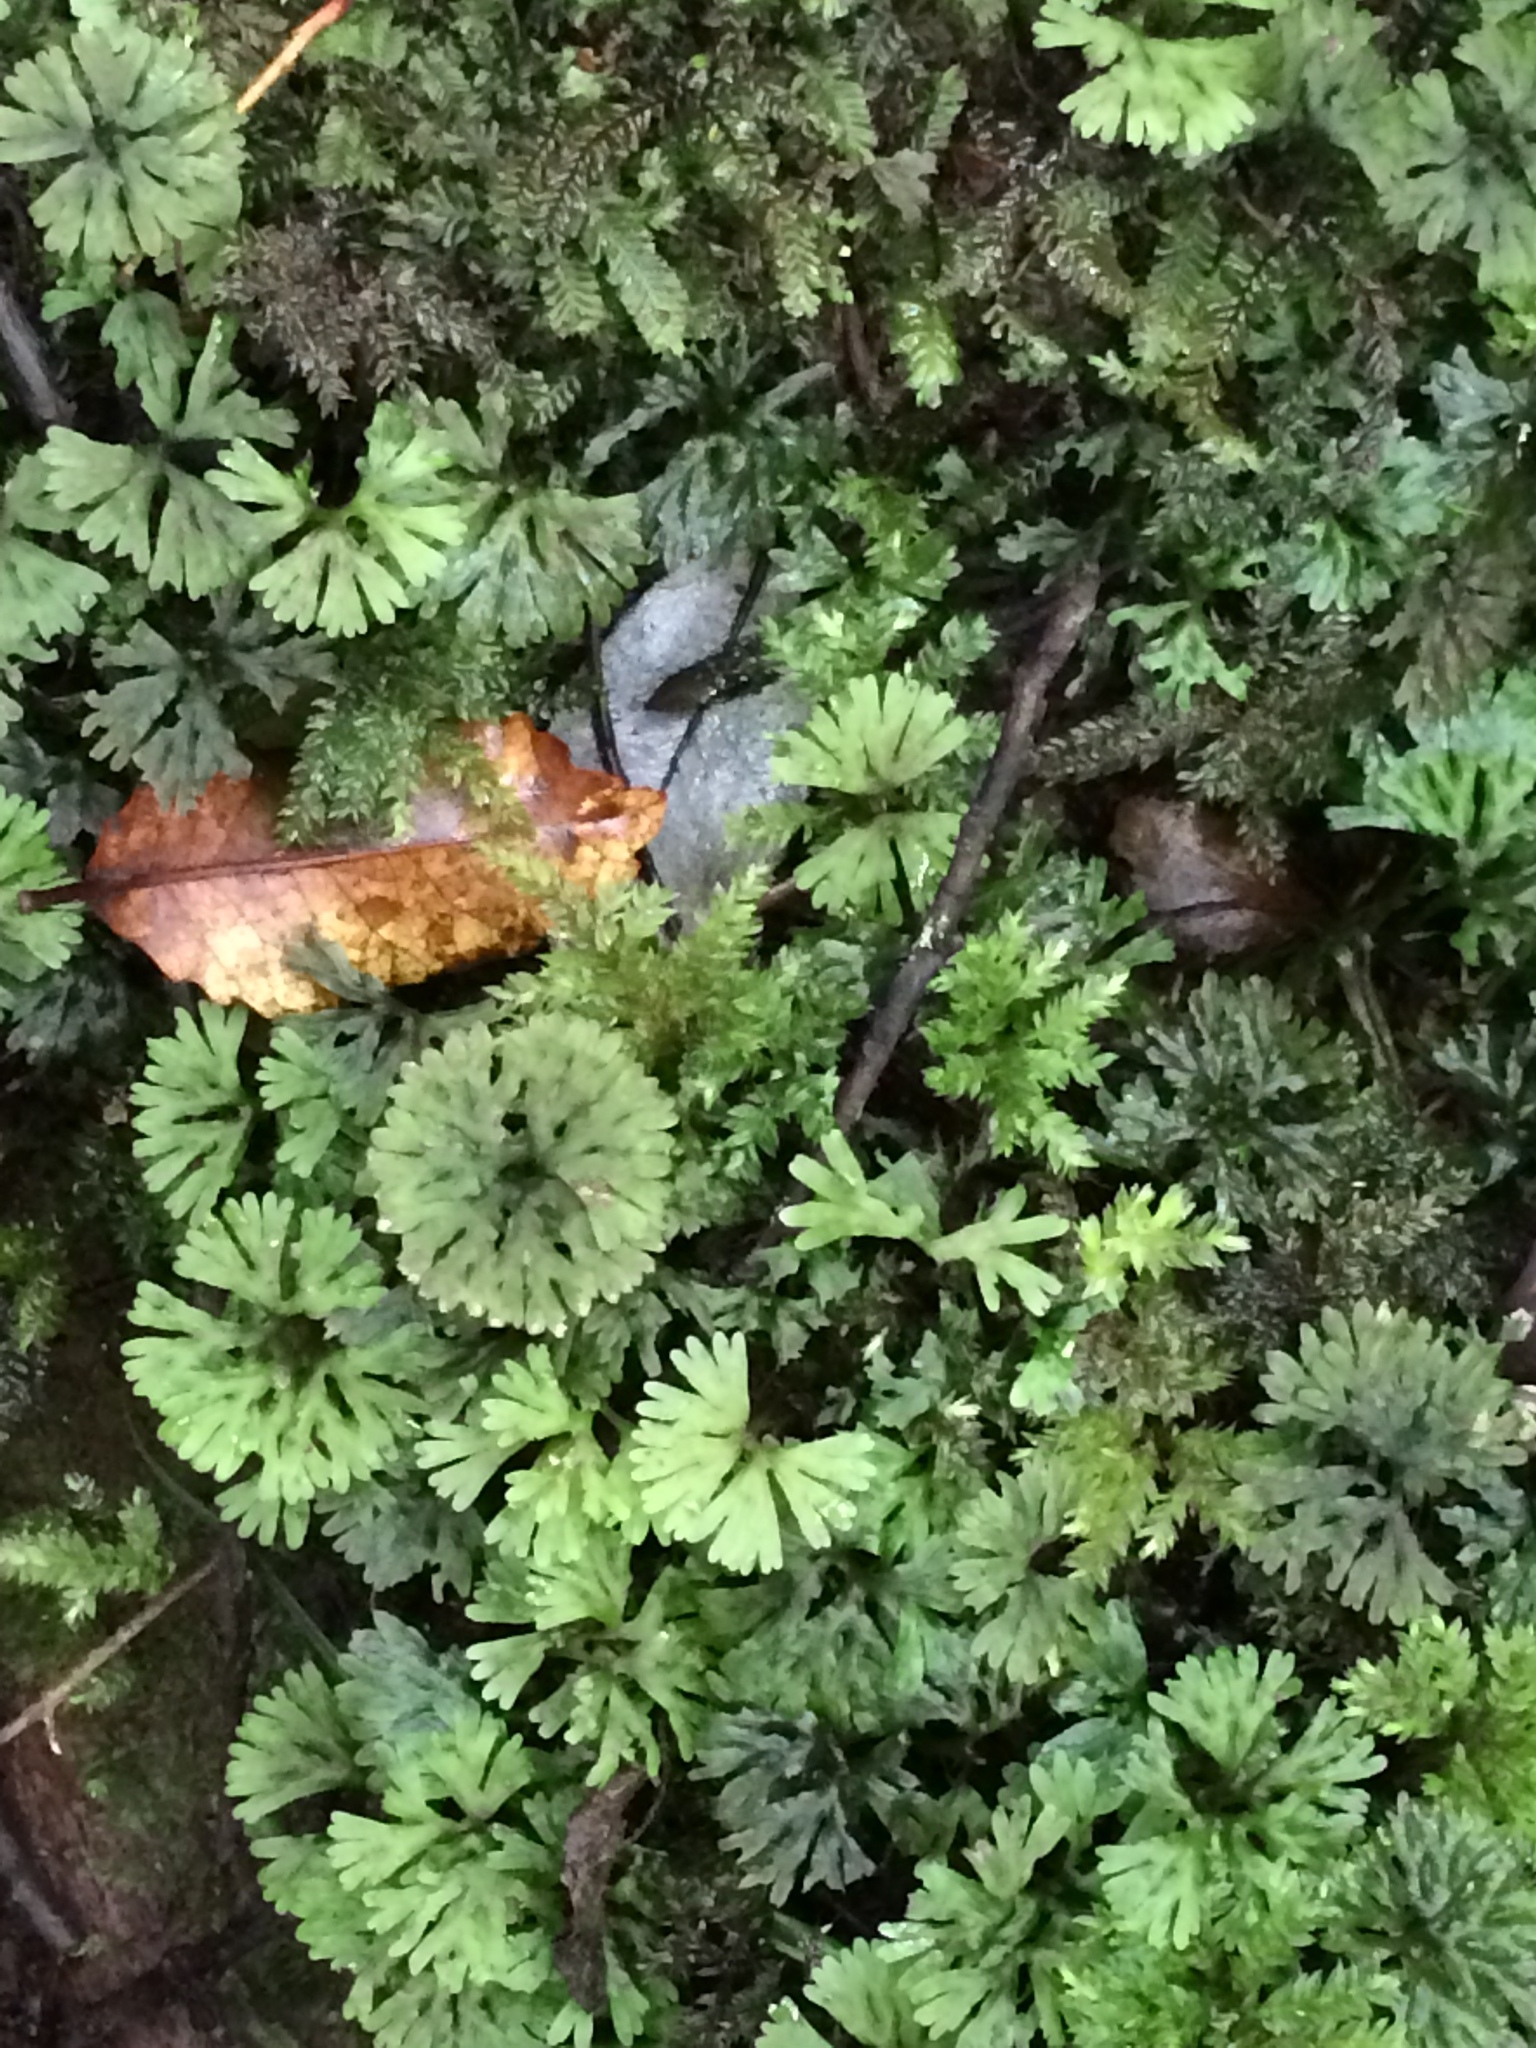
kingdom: Plantae
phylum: Marchantiophyta
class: Jungermanniopsida
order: Pallaviciniales
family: Hymenophytaceae
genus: Hymenophyton
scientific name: Hymenophyton flabellatum
